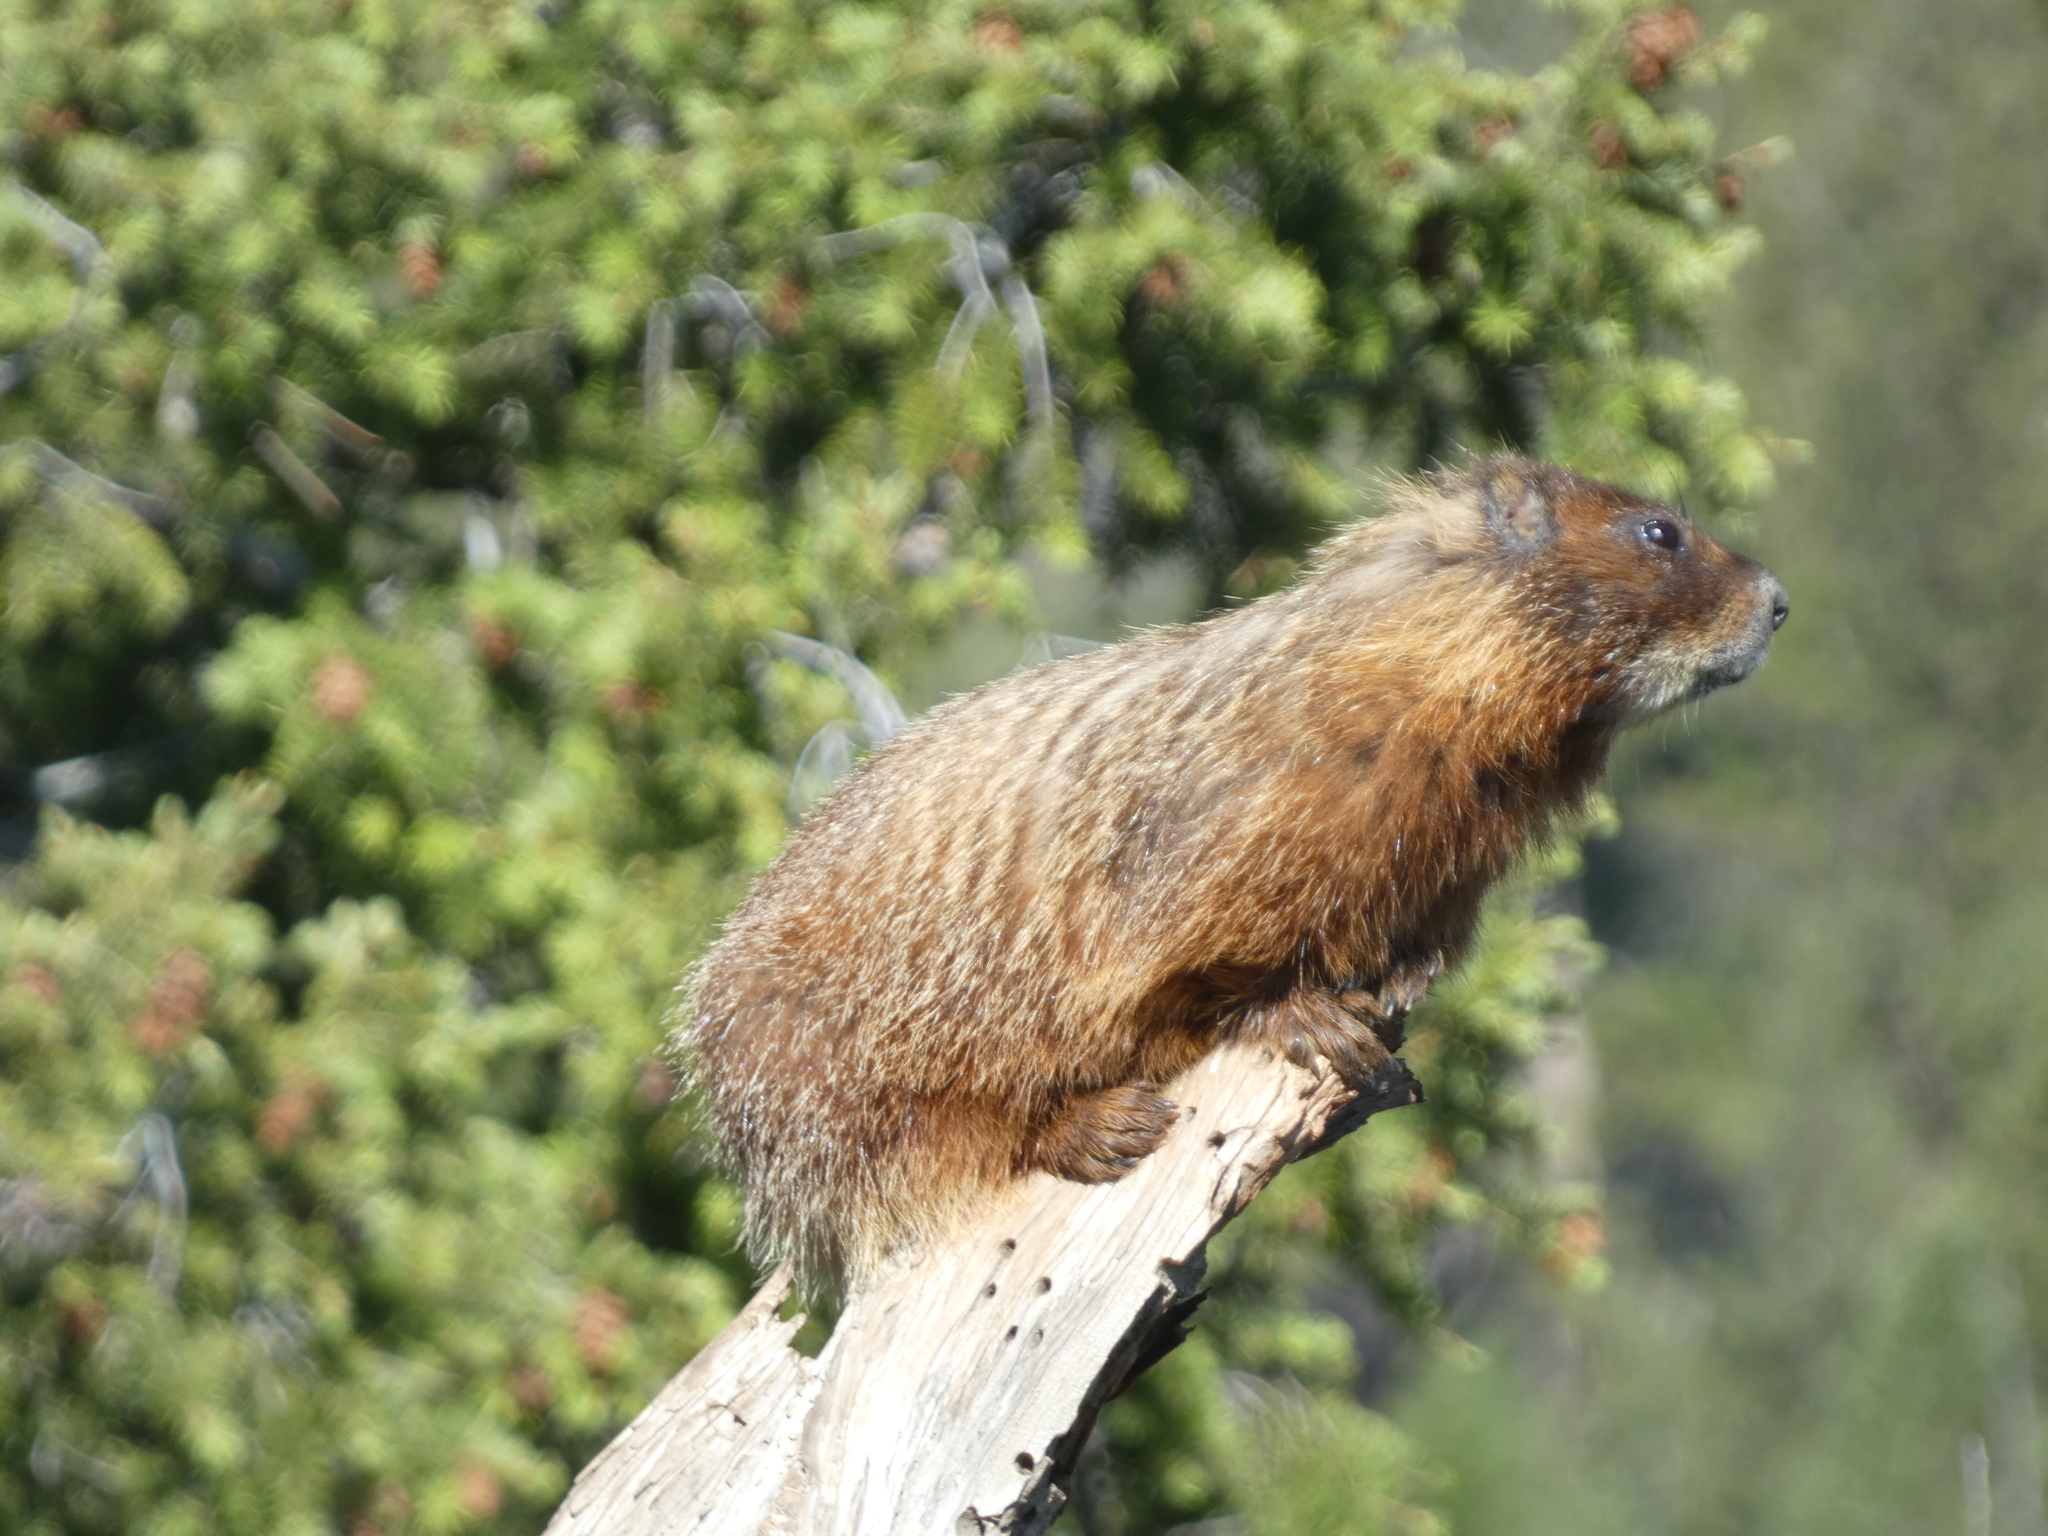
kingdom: Animalia
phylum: Chordata
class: Mammalia
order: Rodentia
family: Sciuridae
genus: Marmota
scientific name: Marmota flaviventris
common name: Yellow-bellied marmot
